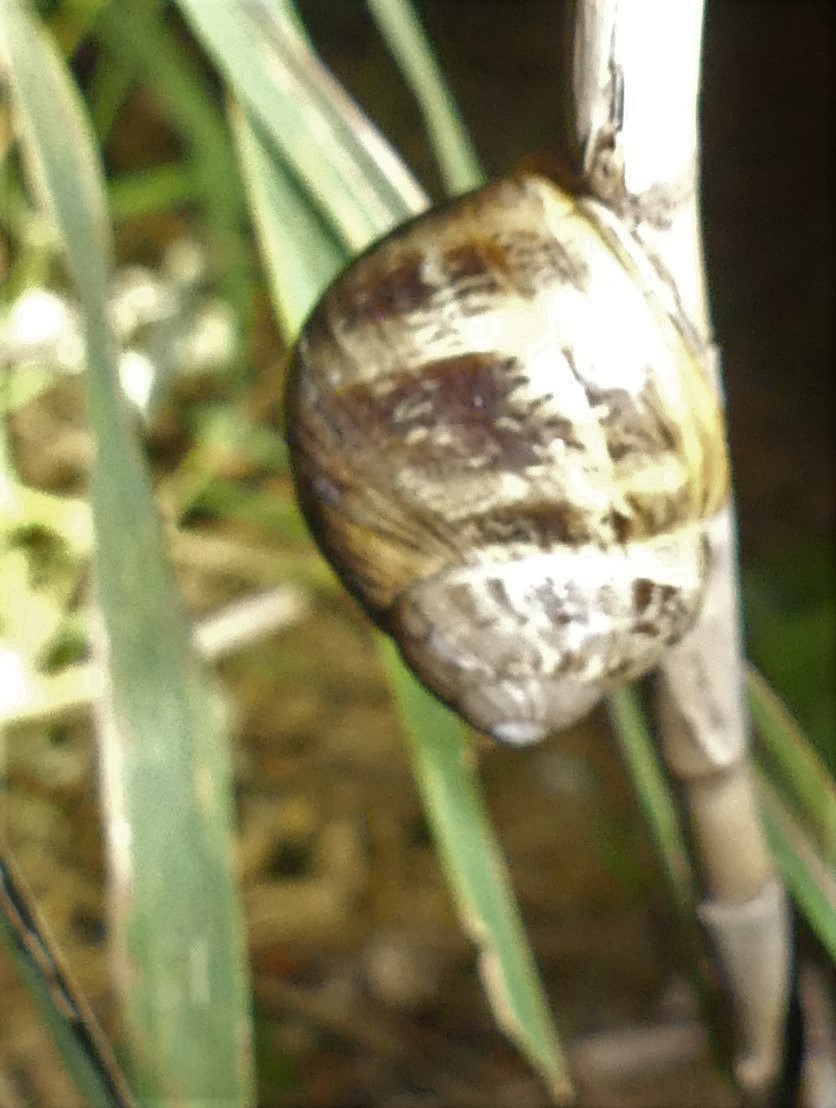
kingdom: Animalia
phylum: Mollusca
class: Gastropoda
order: Stylommatophora
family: Helicidae
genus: Cornu
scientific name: Cornu aspersum
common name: Brown garden snail
